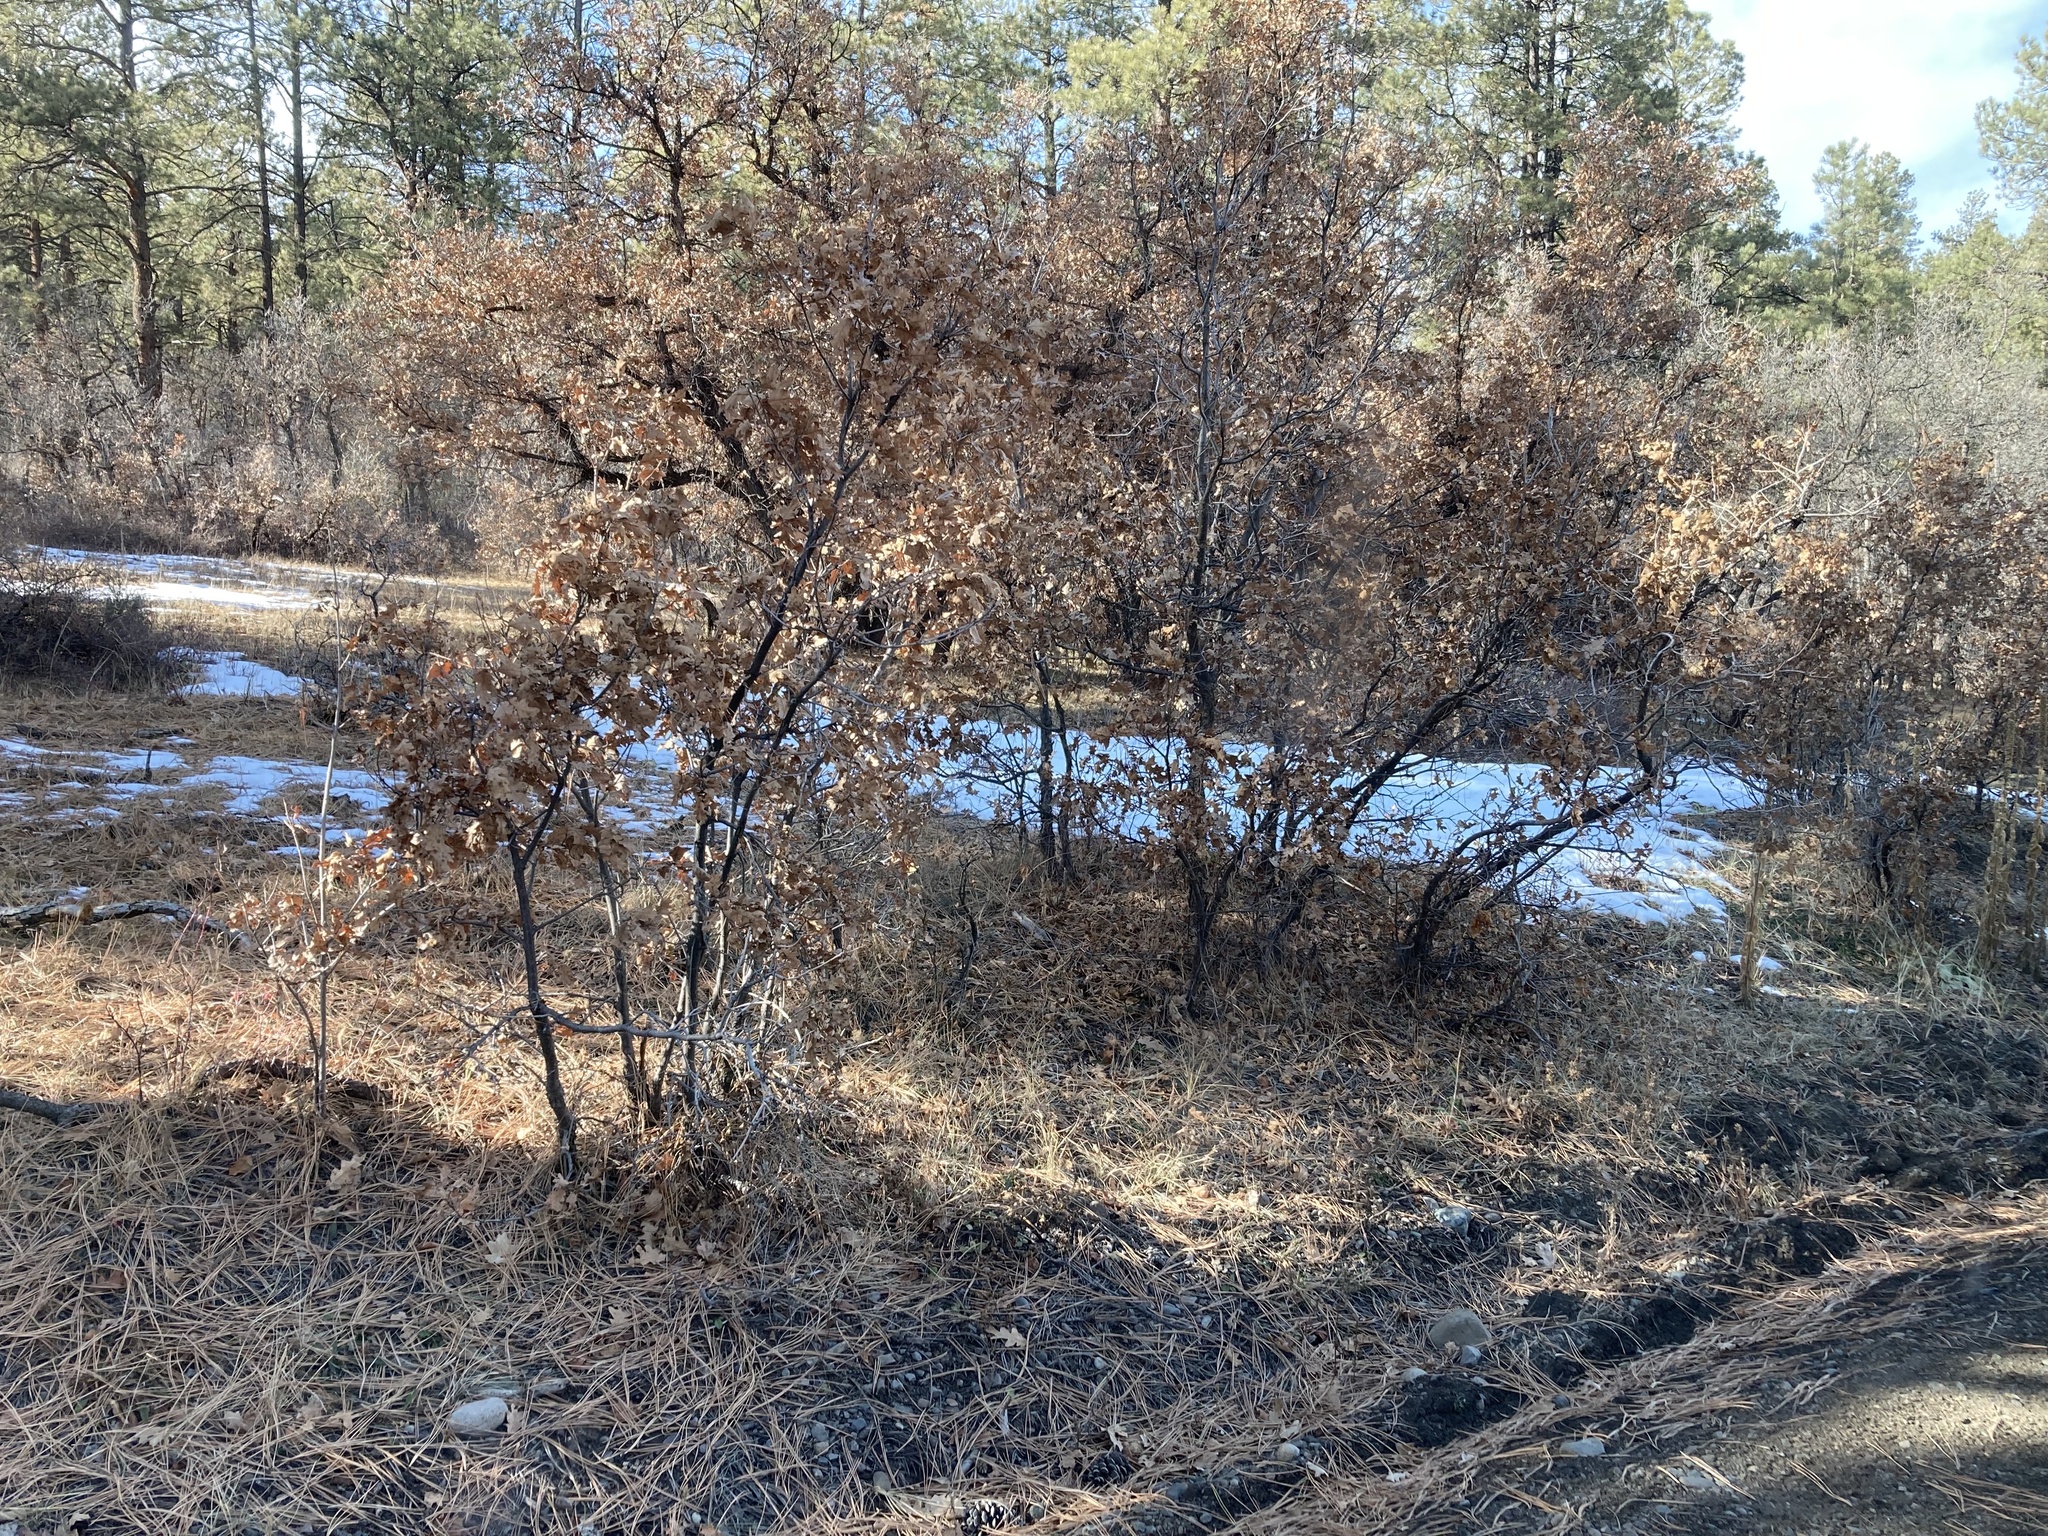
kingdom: Plantae
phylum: Tracheophyta
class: Magnoliopsida
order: Fagales
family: Fagaceae
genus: Quercus
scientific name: Quercus gambelii
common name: Gambel oak
